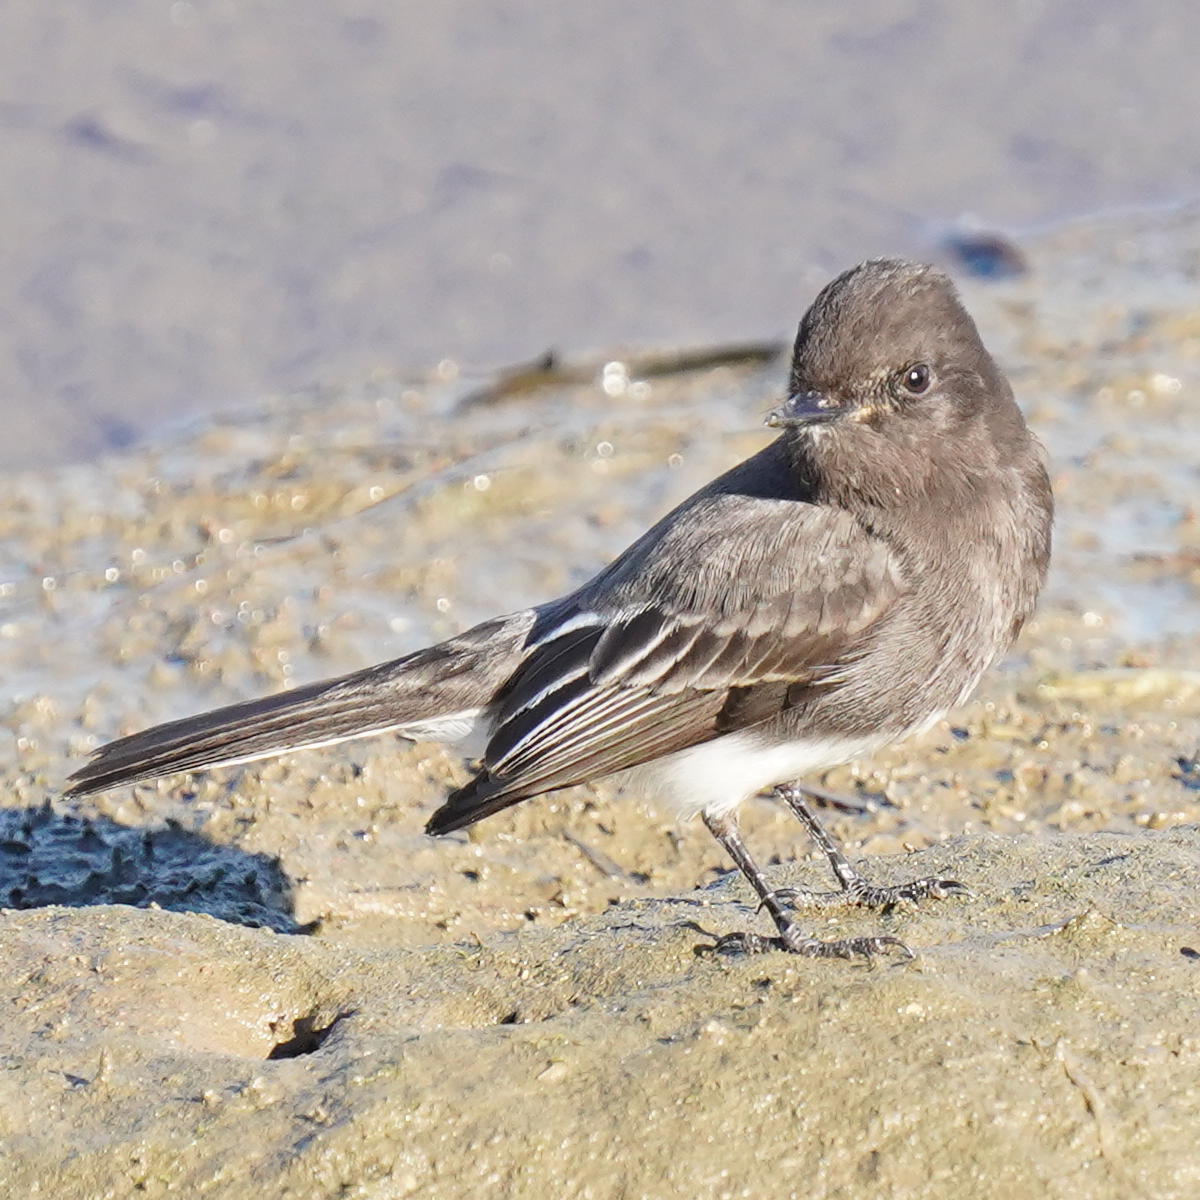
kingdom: Animalia
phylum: Chordata
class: Aves
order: Passeriformes
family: Tyrannidae
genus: Sayornis
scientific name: Sayornis nigricans
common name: Black phoebe
